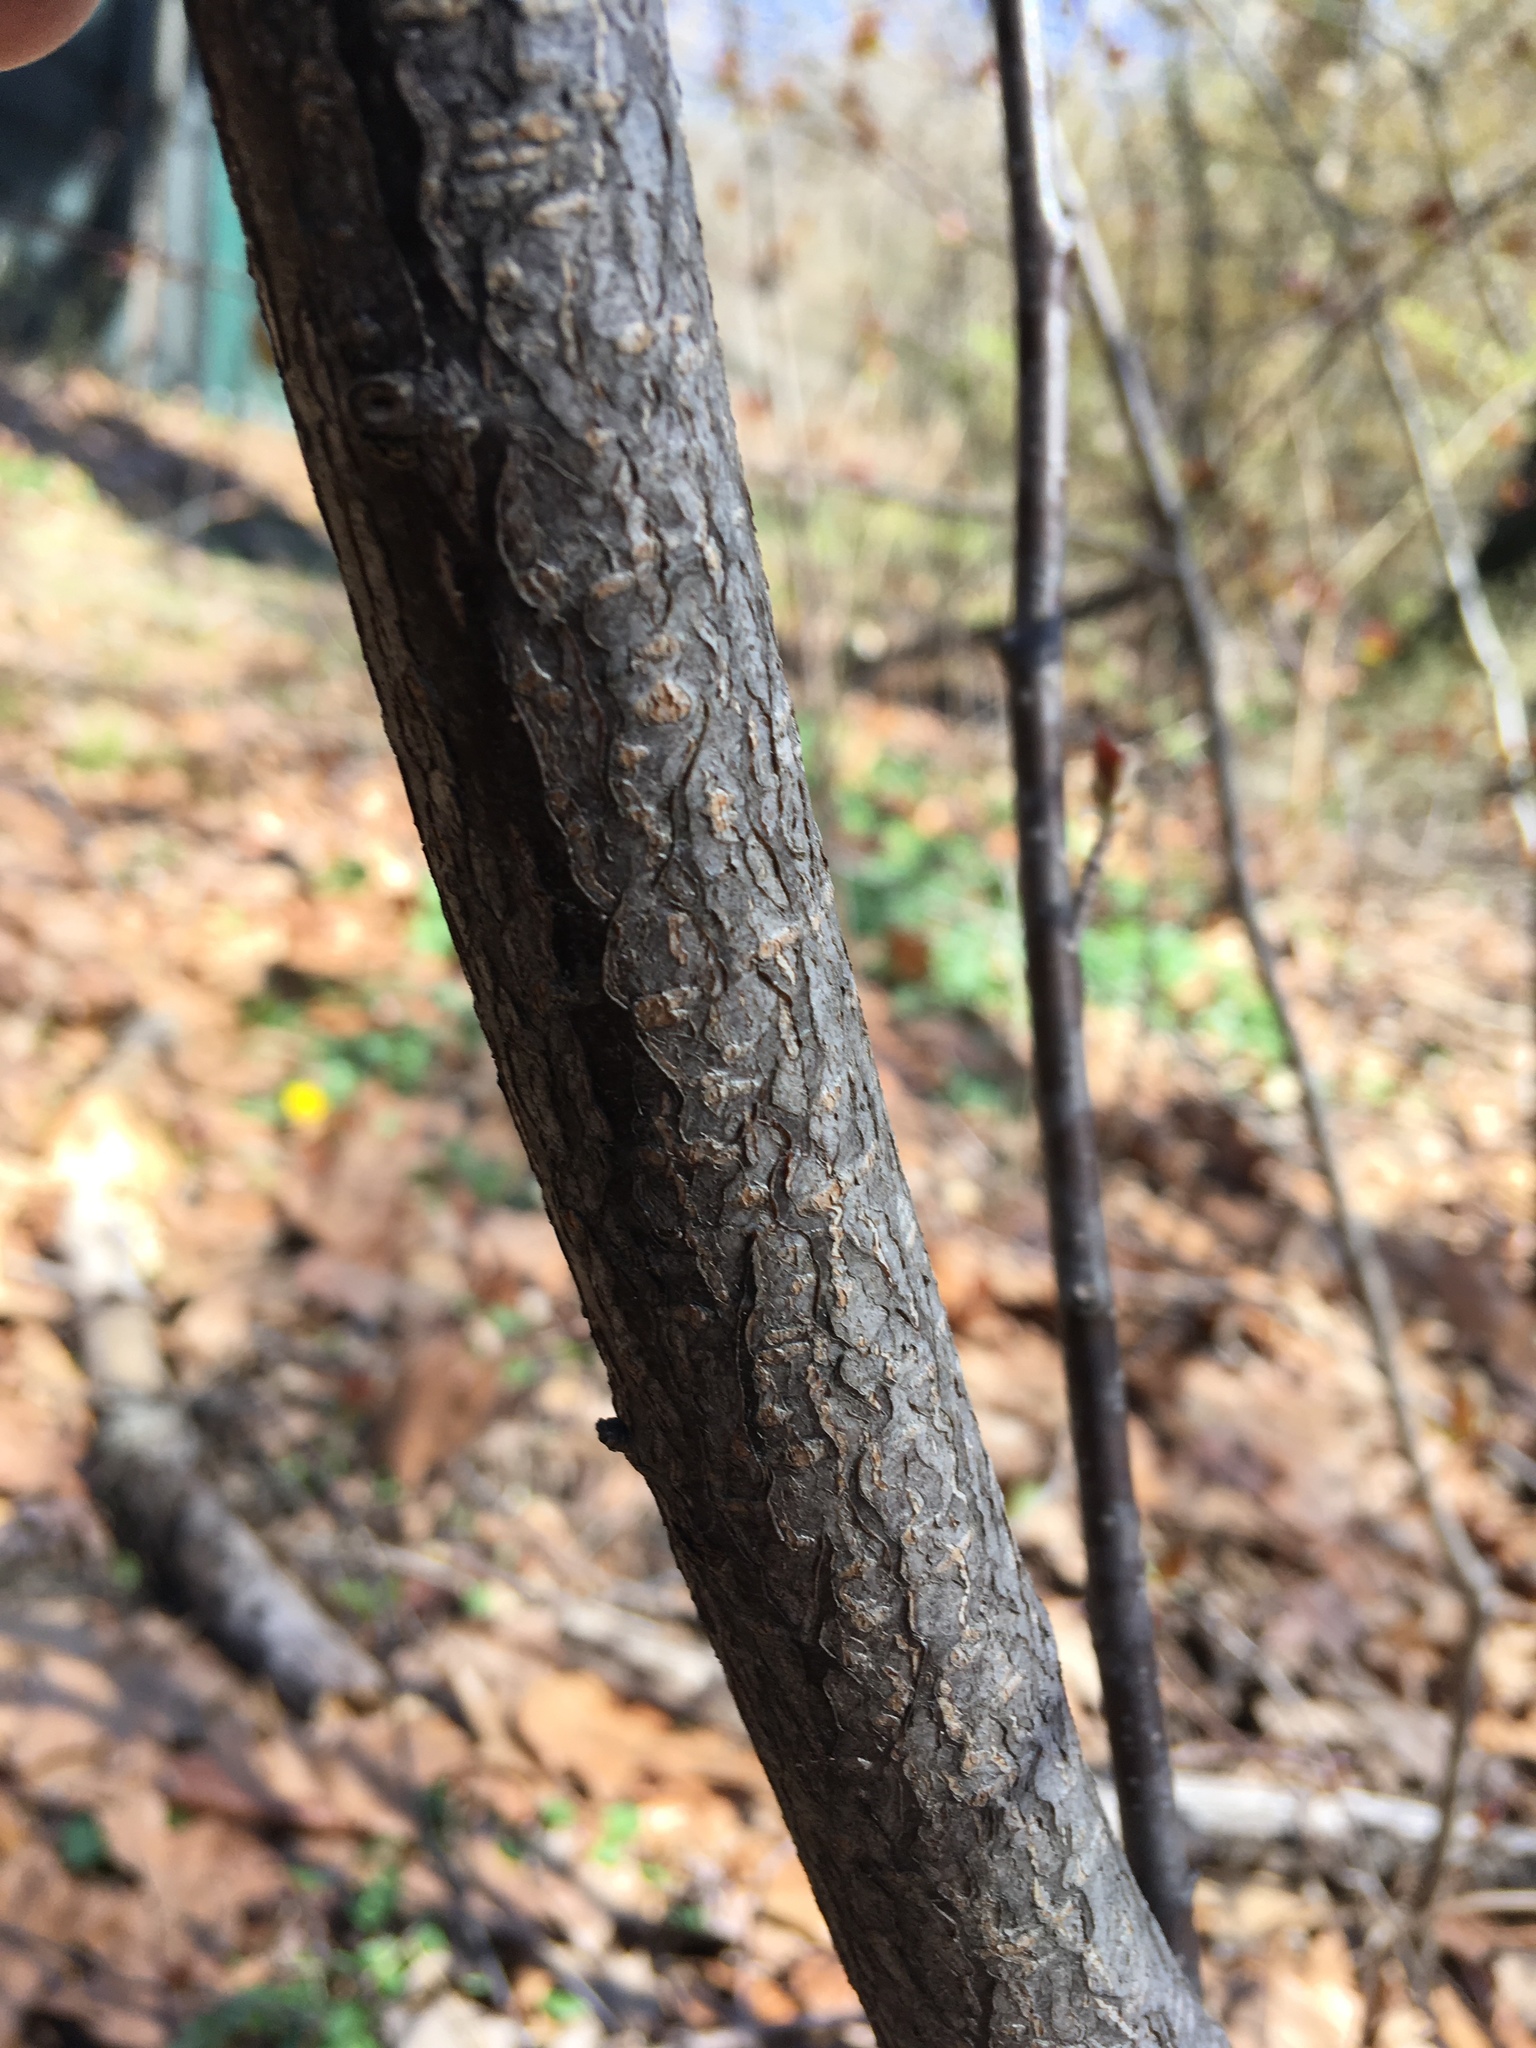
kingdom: Plantae
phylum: Tracheophyta
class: Magnoliopsida
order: Rosales
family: Rosaceae
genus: Prunus
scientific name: Prunus virginiana
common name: Chokecherry
